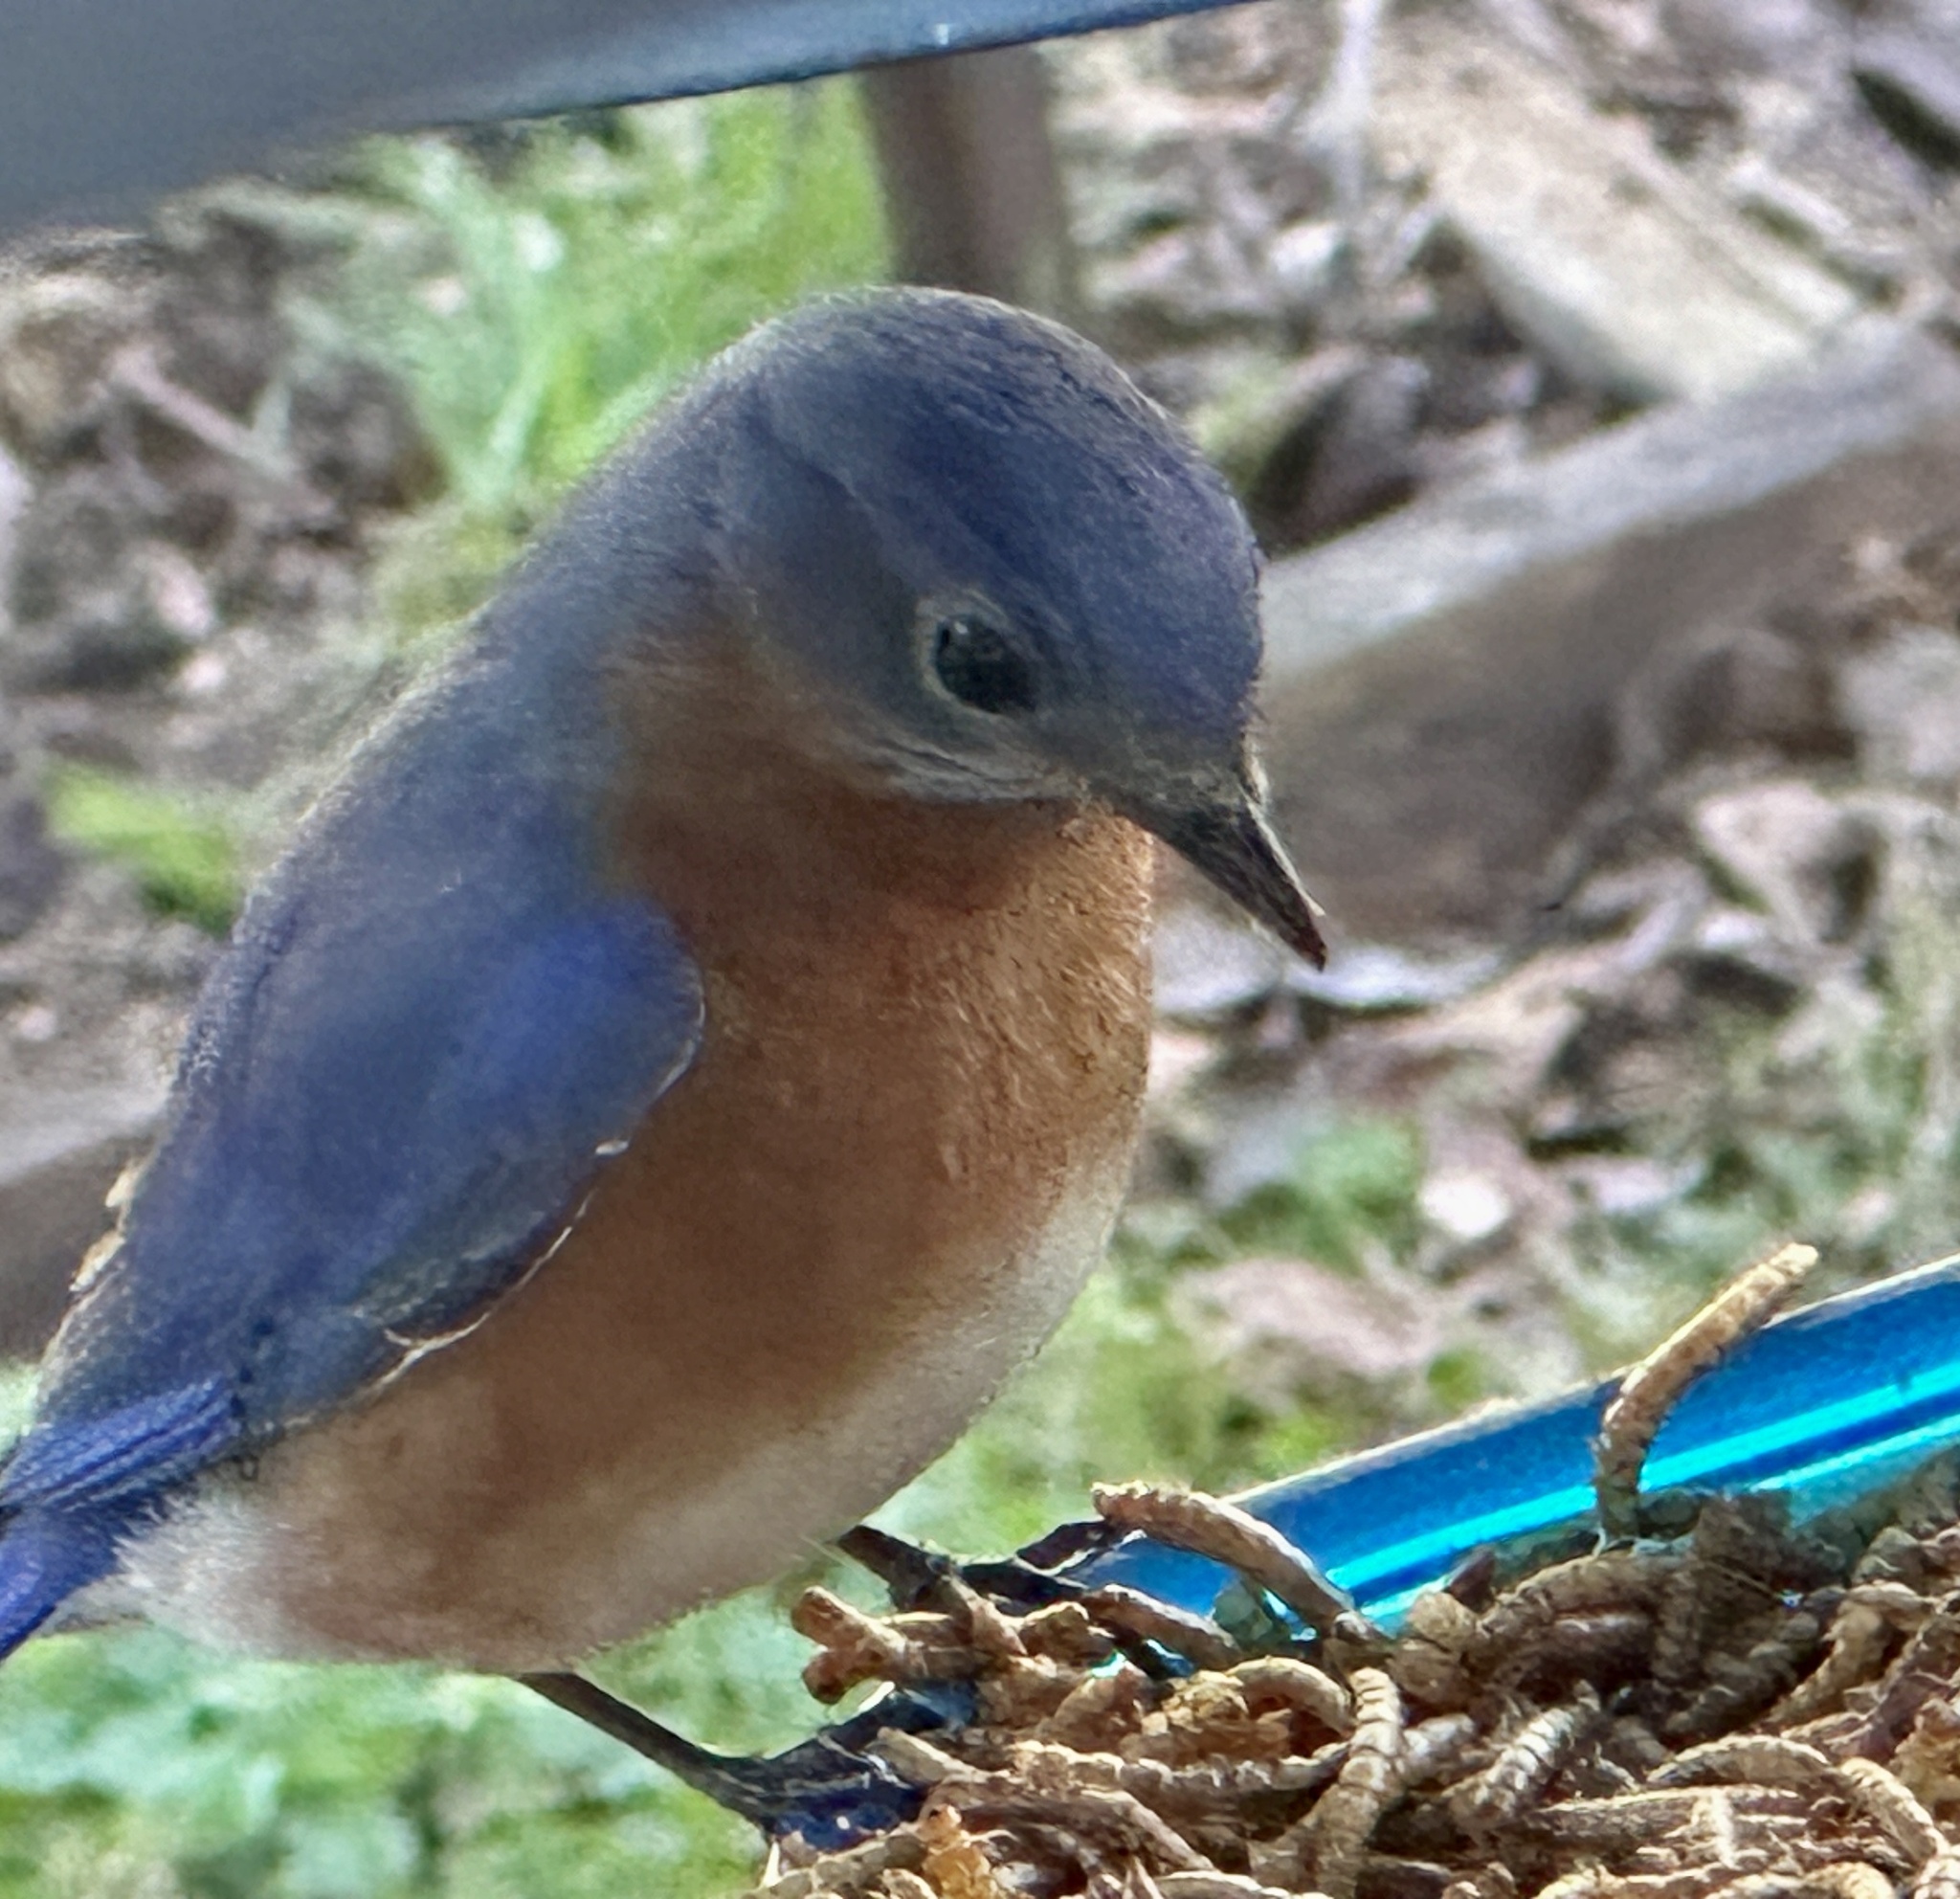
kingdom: Animalia
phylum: Chordata
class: Aves
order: Passeriformes
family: Turdidae
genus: Sialia
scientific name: Sialia sialis
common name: Eastern bluebird
